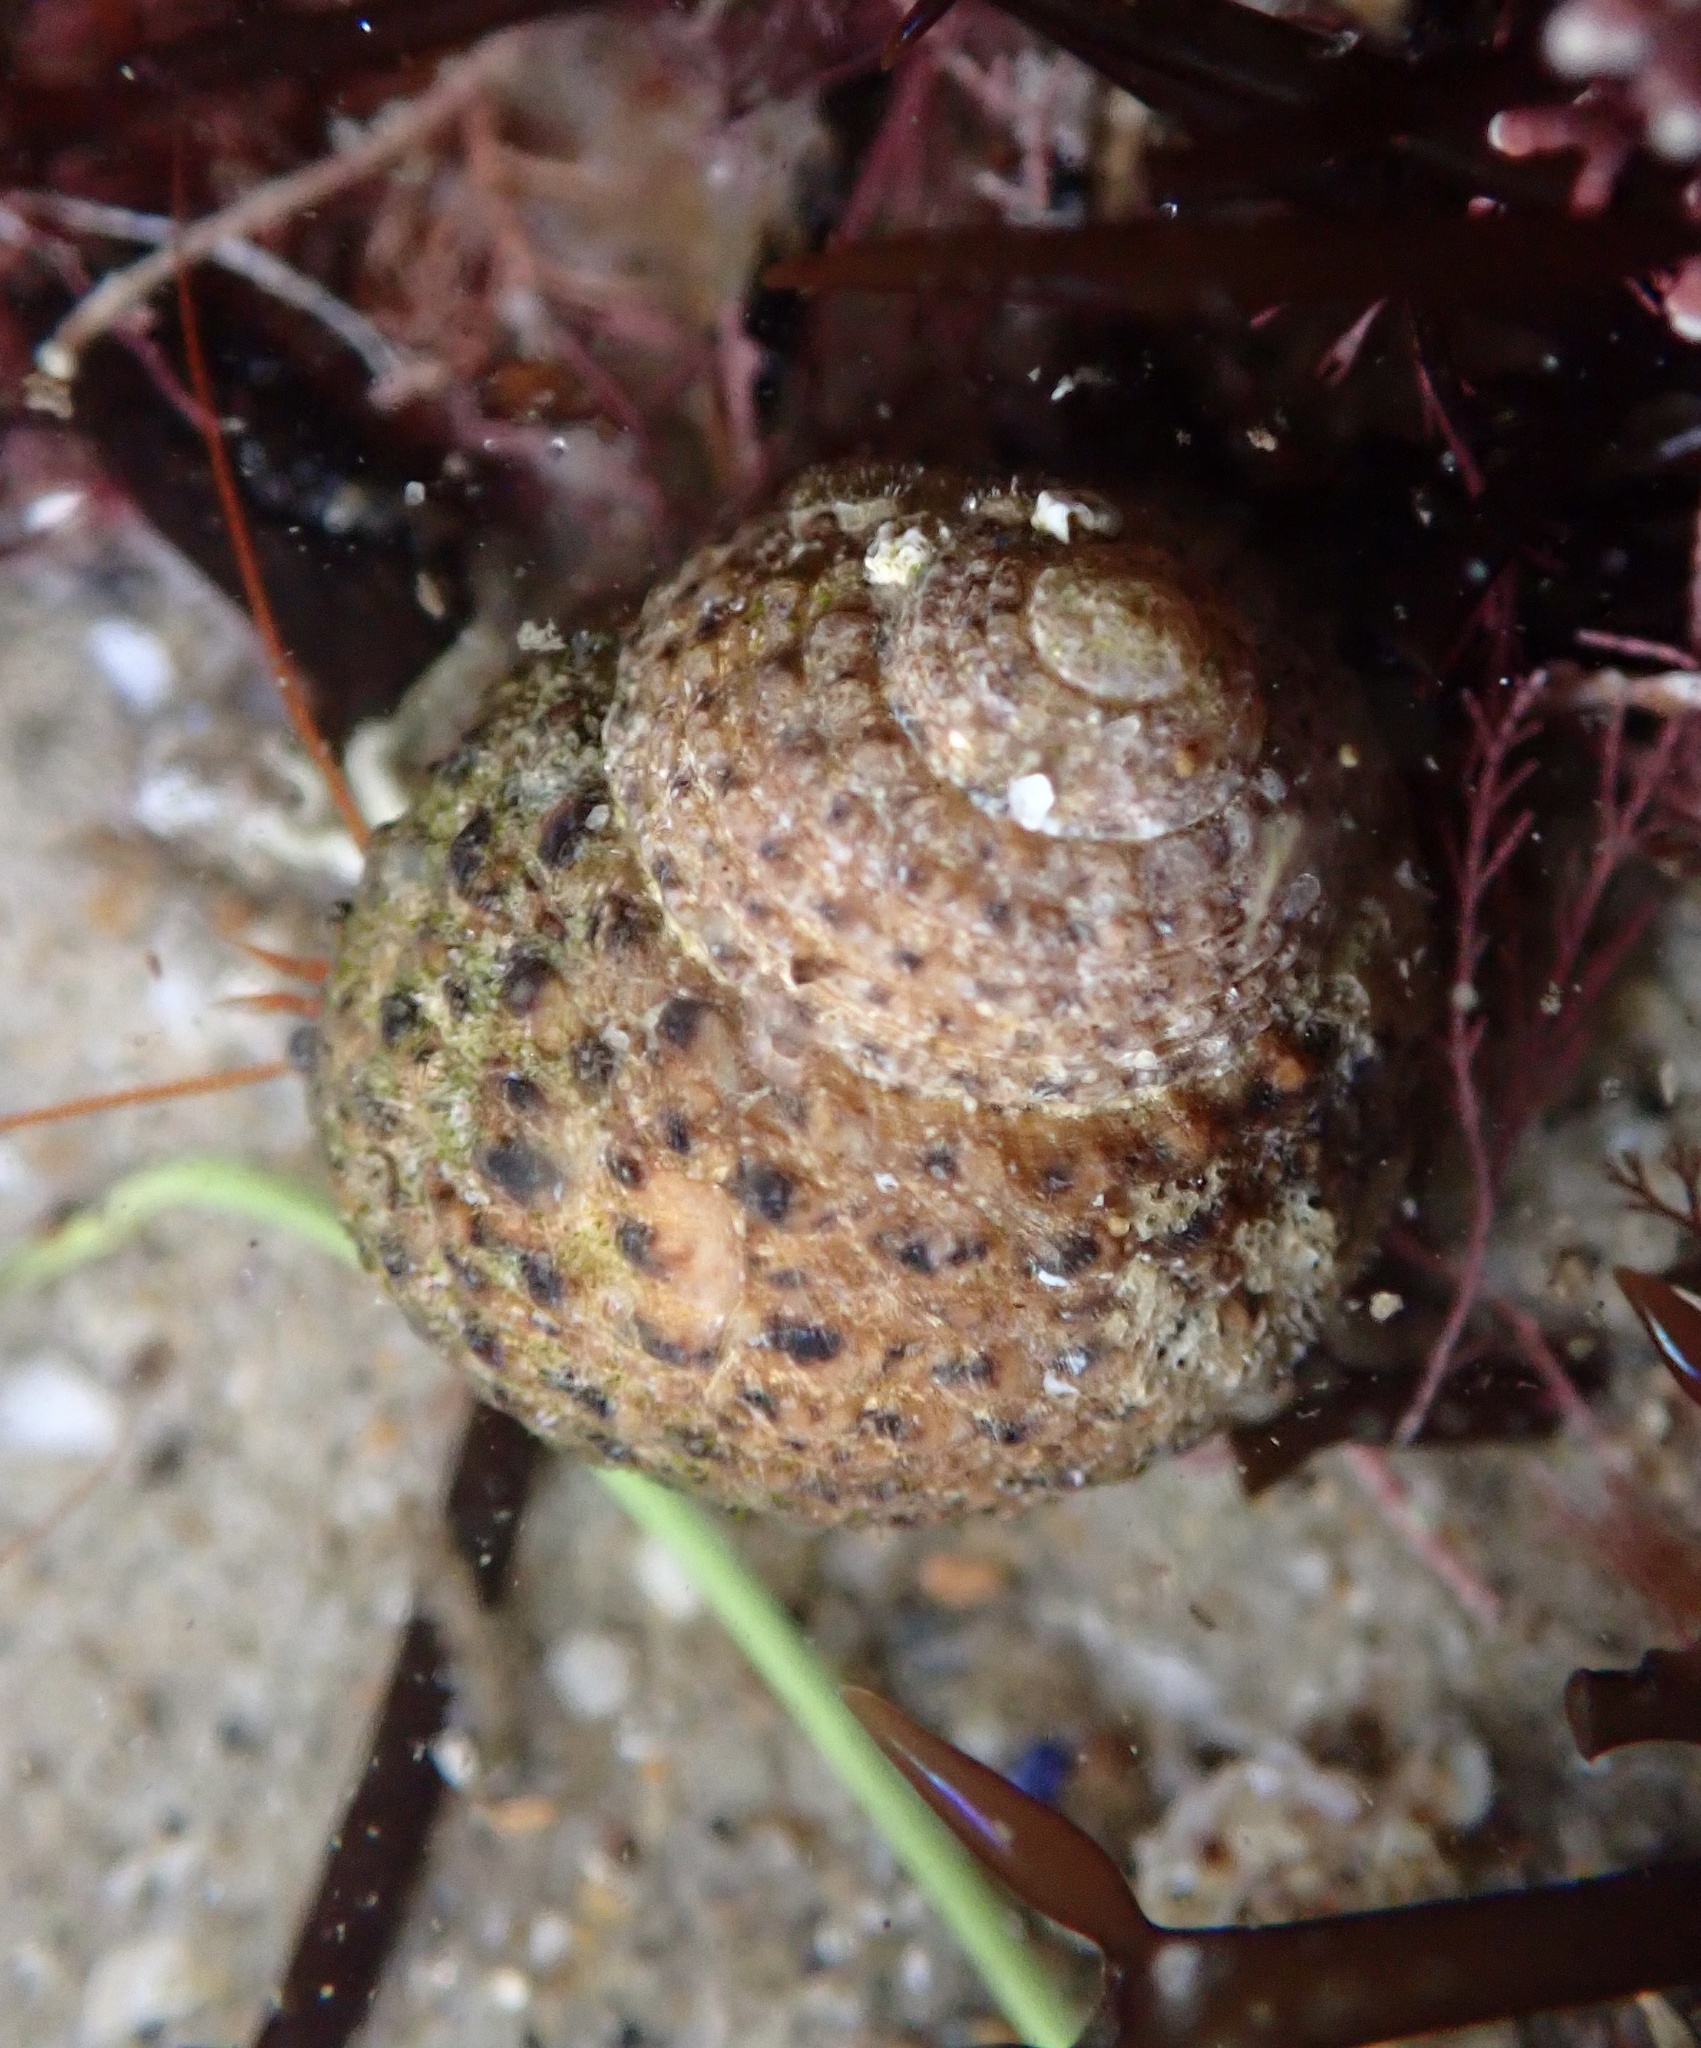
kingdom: Animalia
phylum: Mollusca
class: Gastropoda
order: Trochida
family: Tegulidae
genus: Tegula
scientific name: Tegula eiseni
